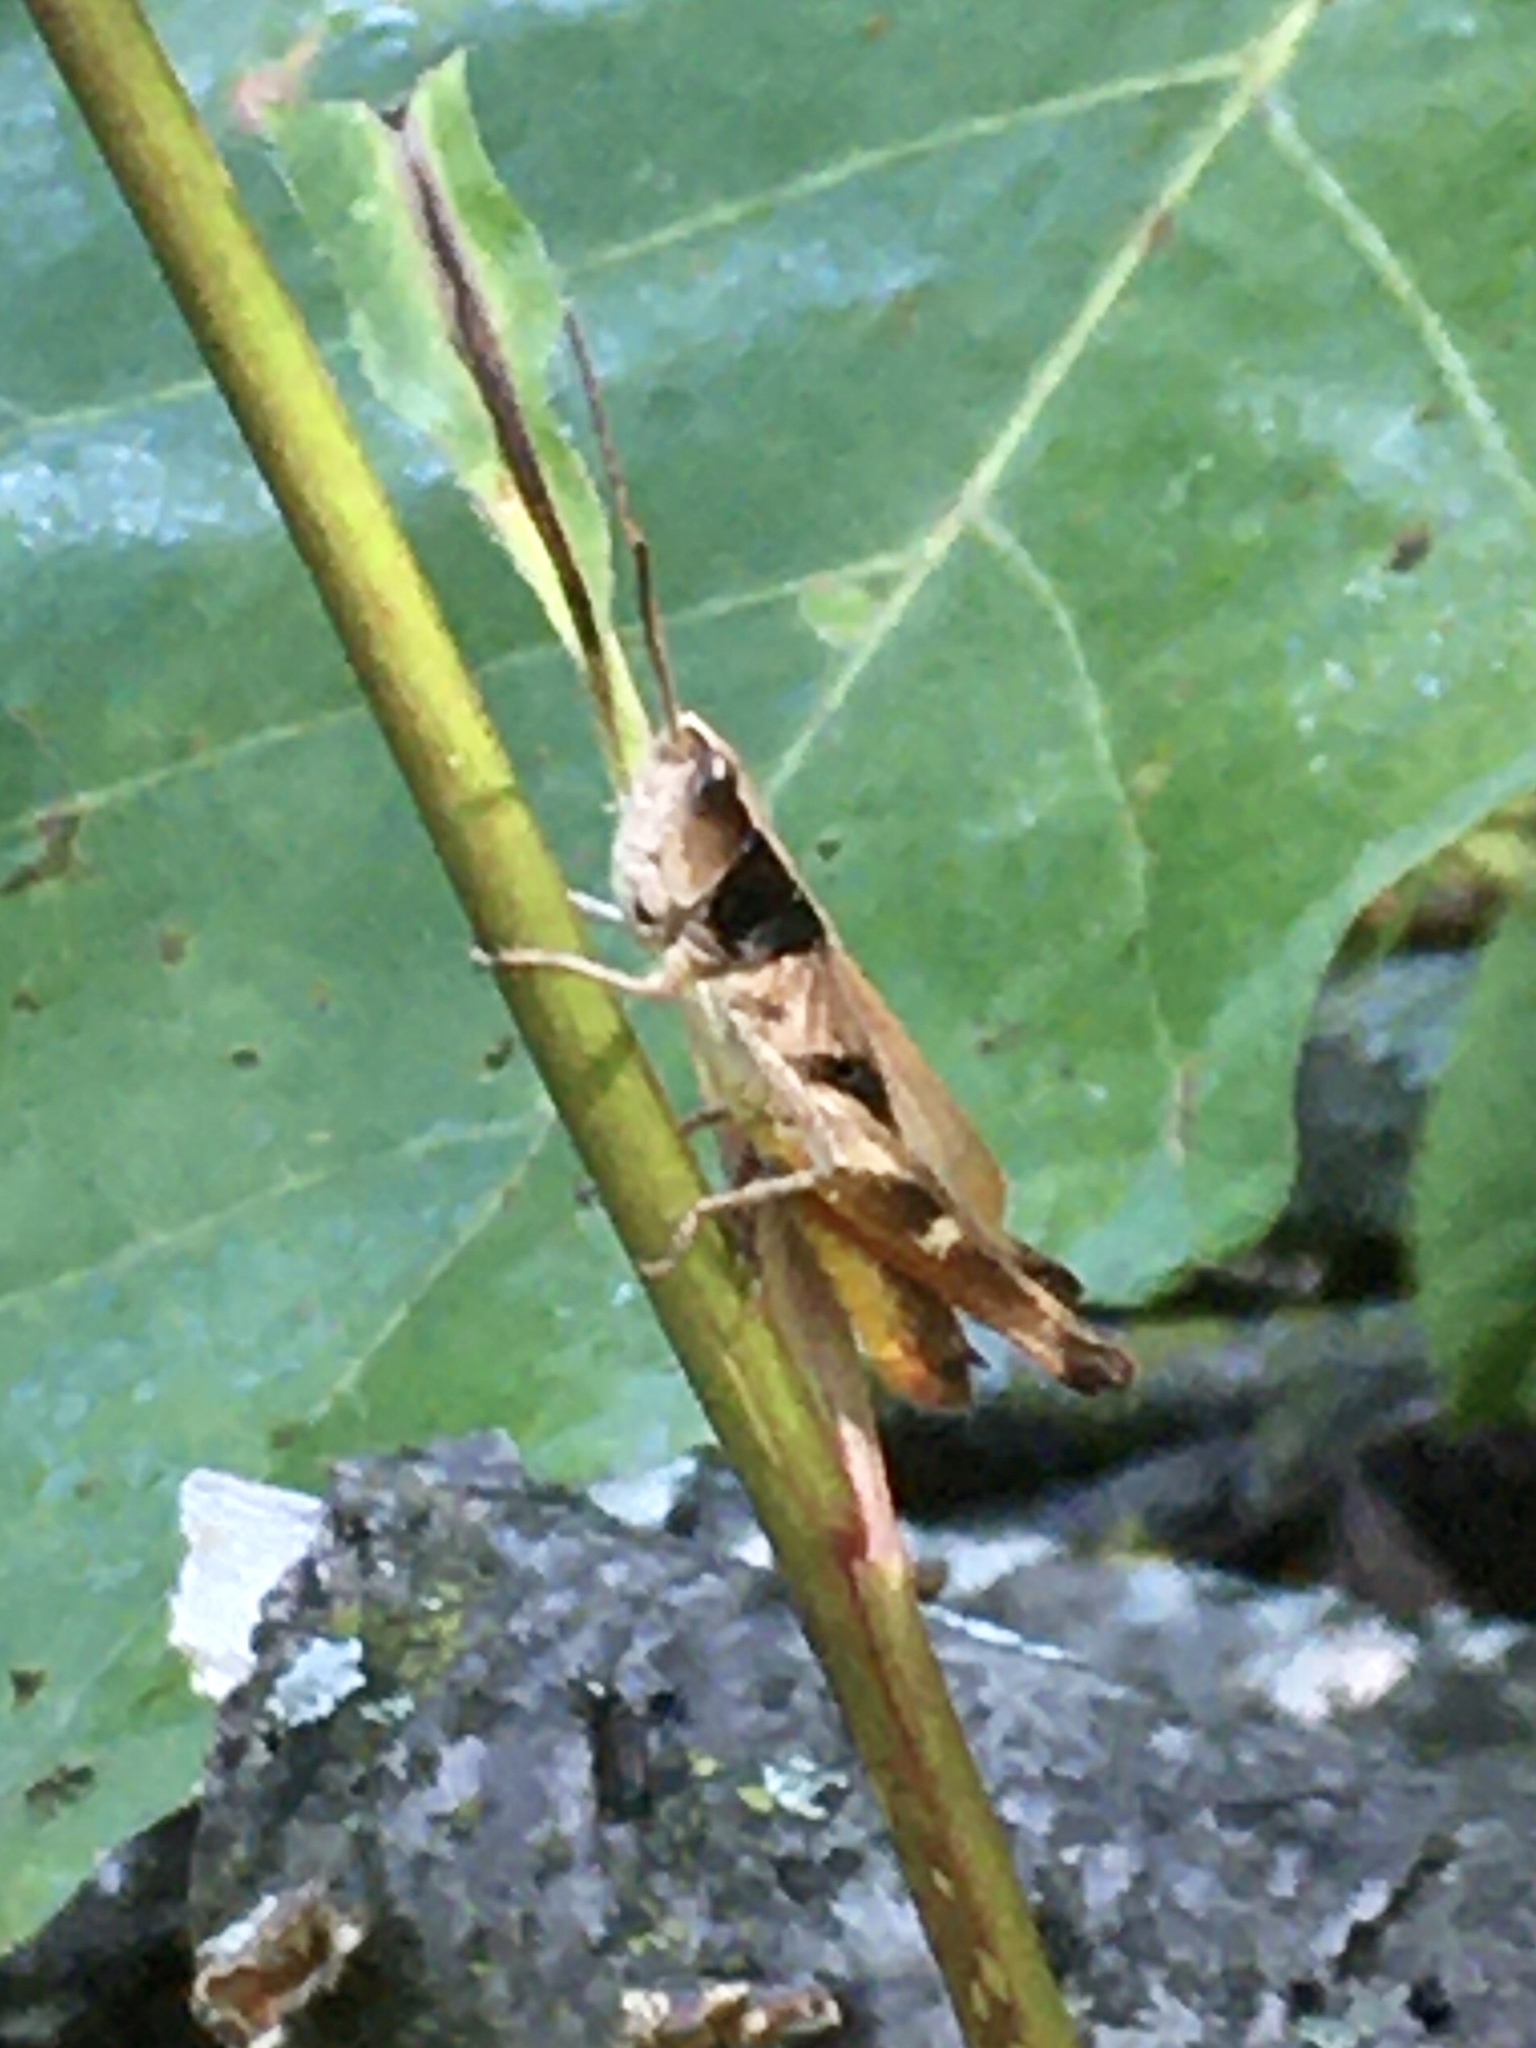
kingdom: Animalia
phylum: Arthropoda
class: Insecta
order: Orthoptera
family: Acrididae
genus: Chloealtis
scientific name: Chloealtis conspersa
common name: Sprinkled broad-winged grasshopper
